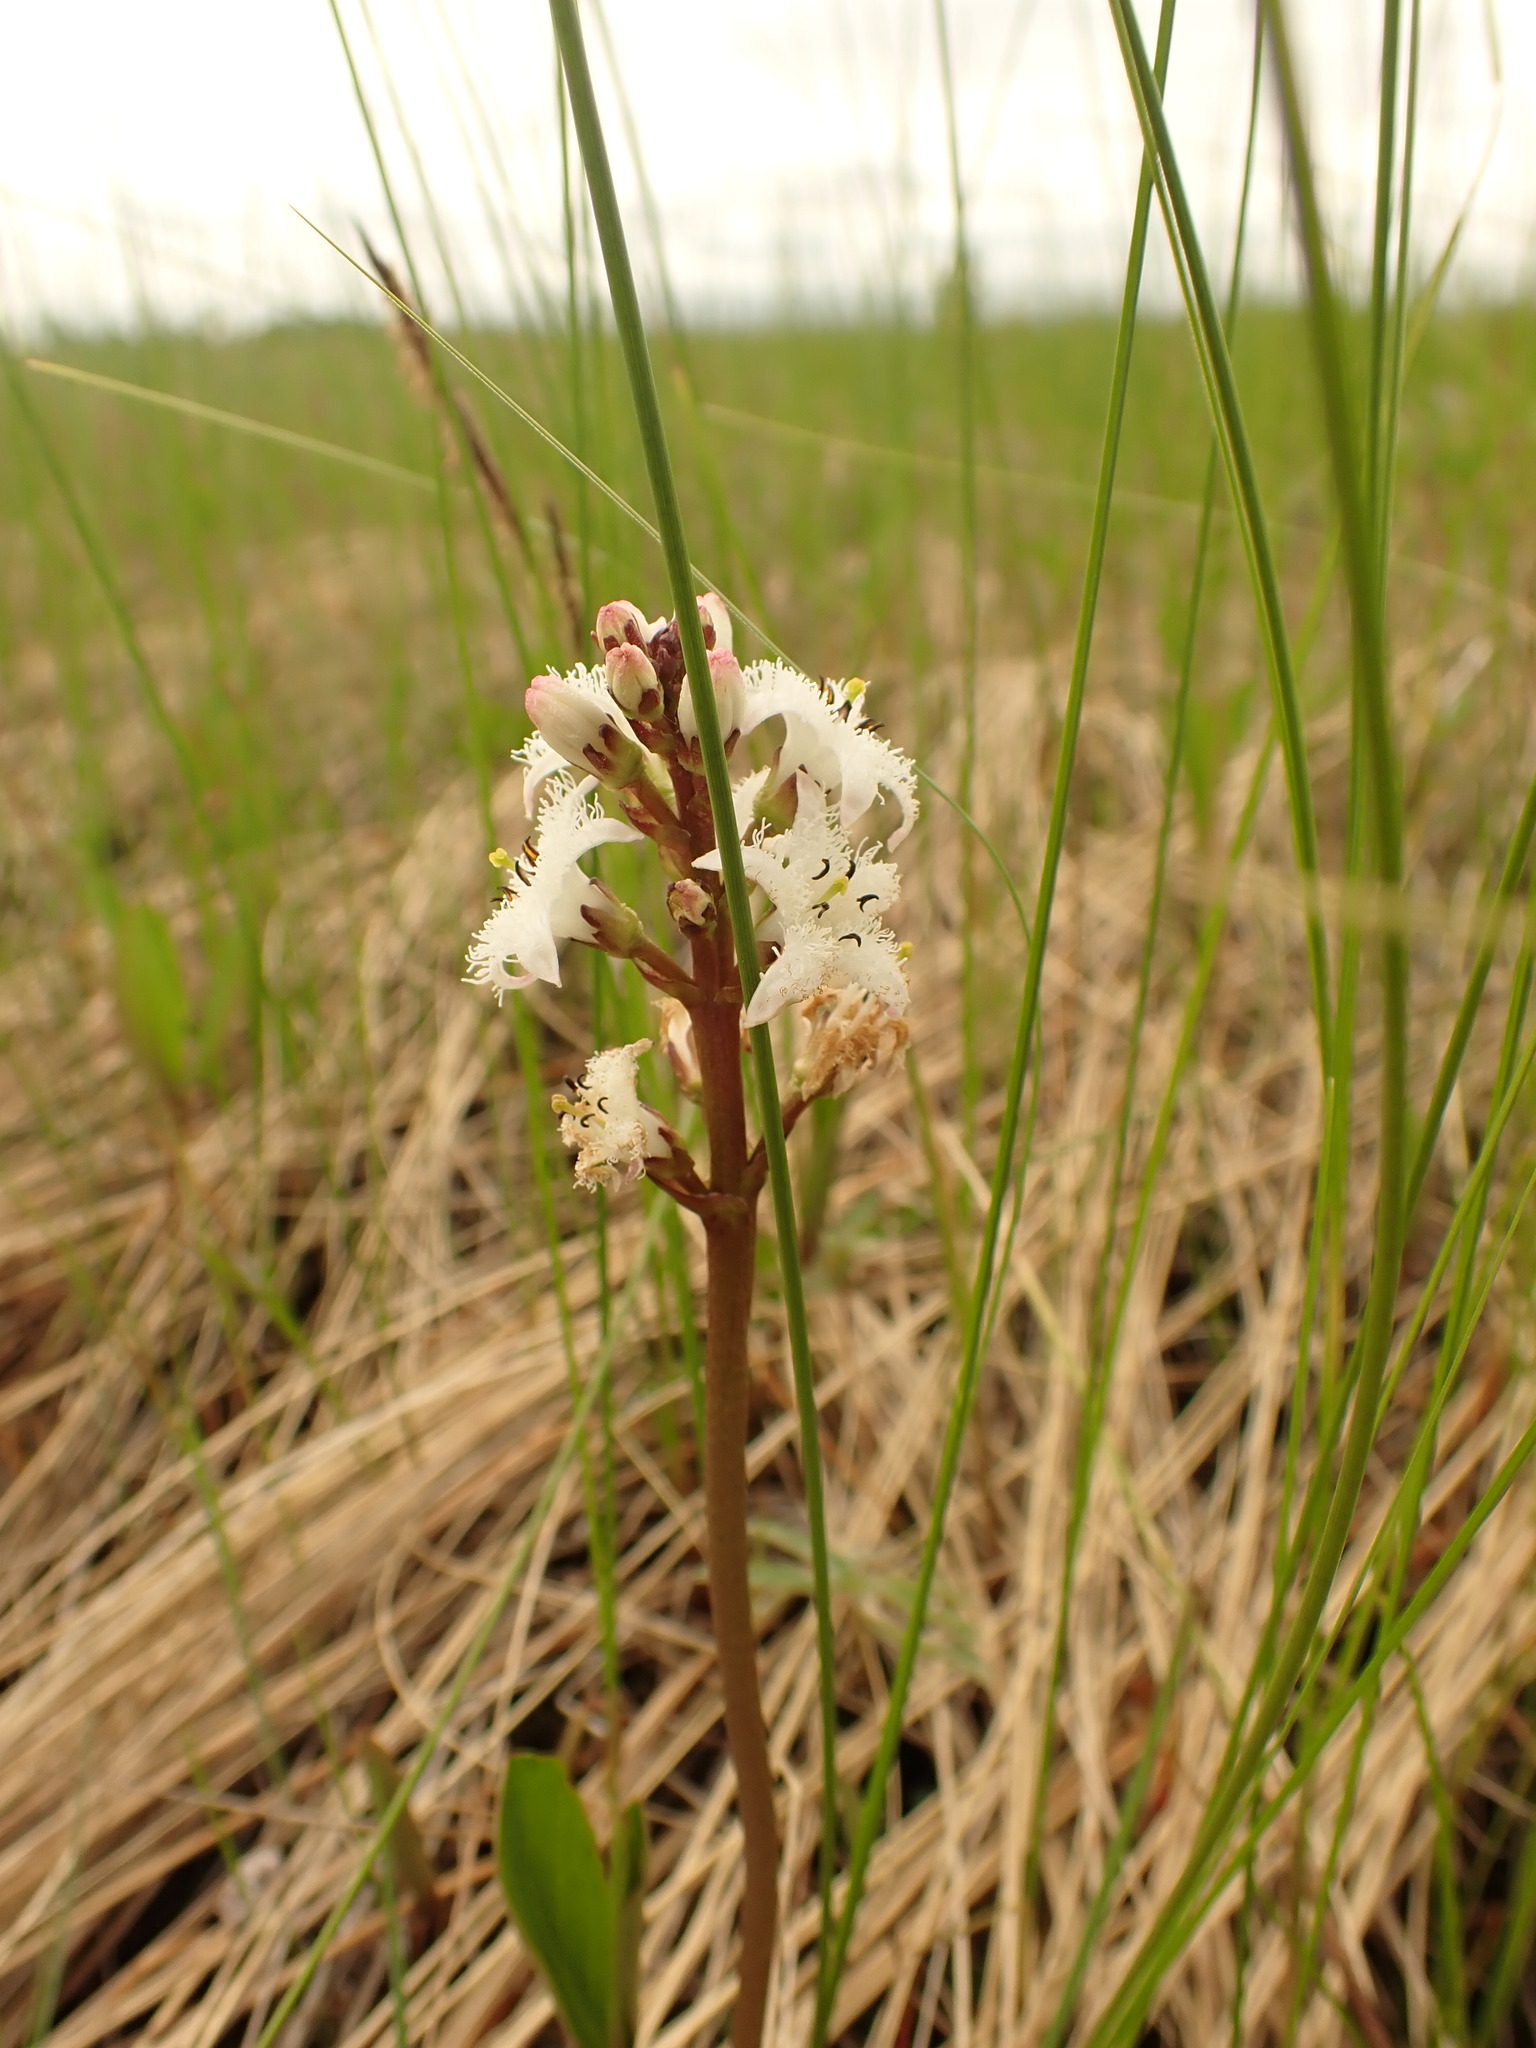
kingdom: Plantae
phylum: Tracheophyta
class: Magnoliopsida
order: Asterales
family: Menyanthaceae
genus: Menyanthes
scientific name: Menyanthes trifoliata
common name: Bogbean
